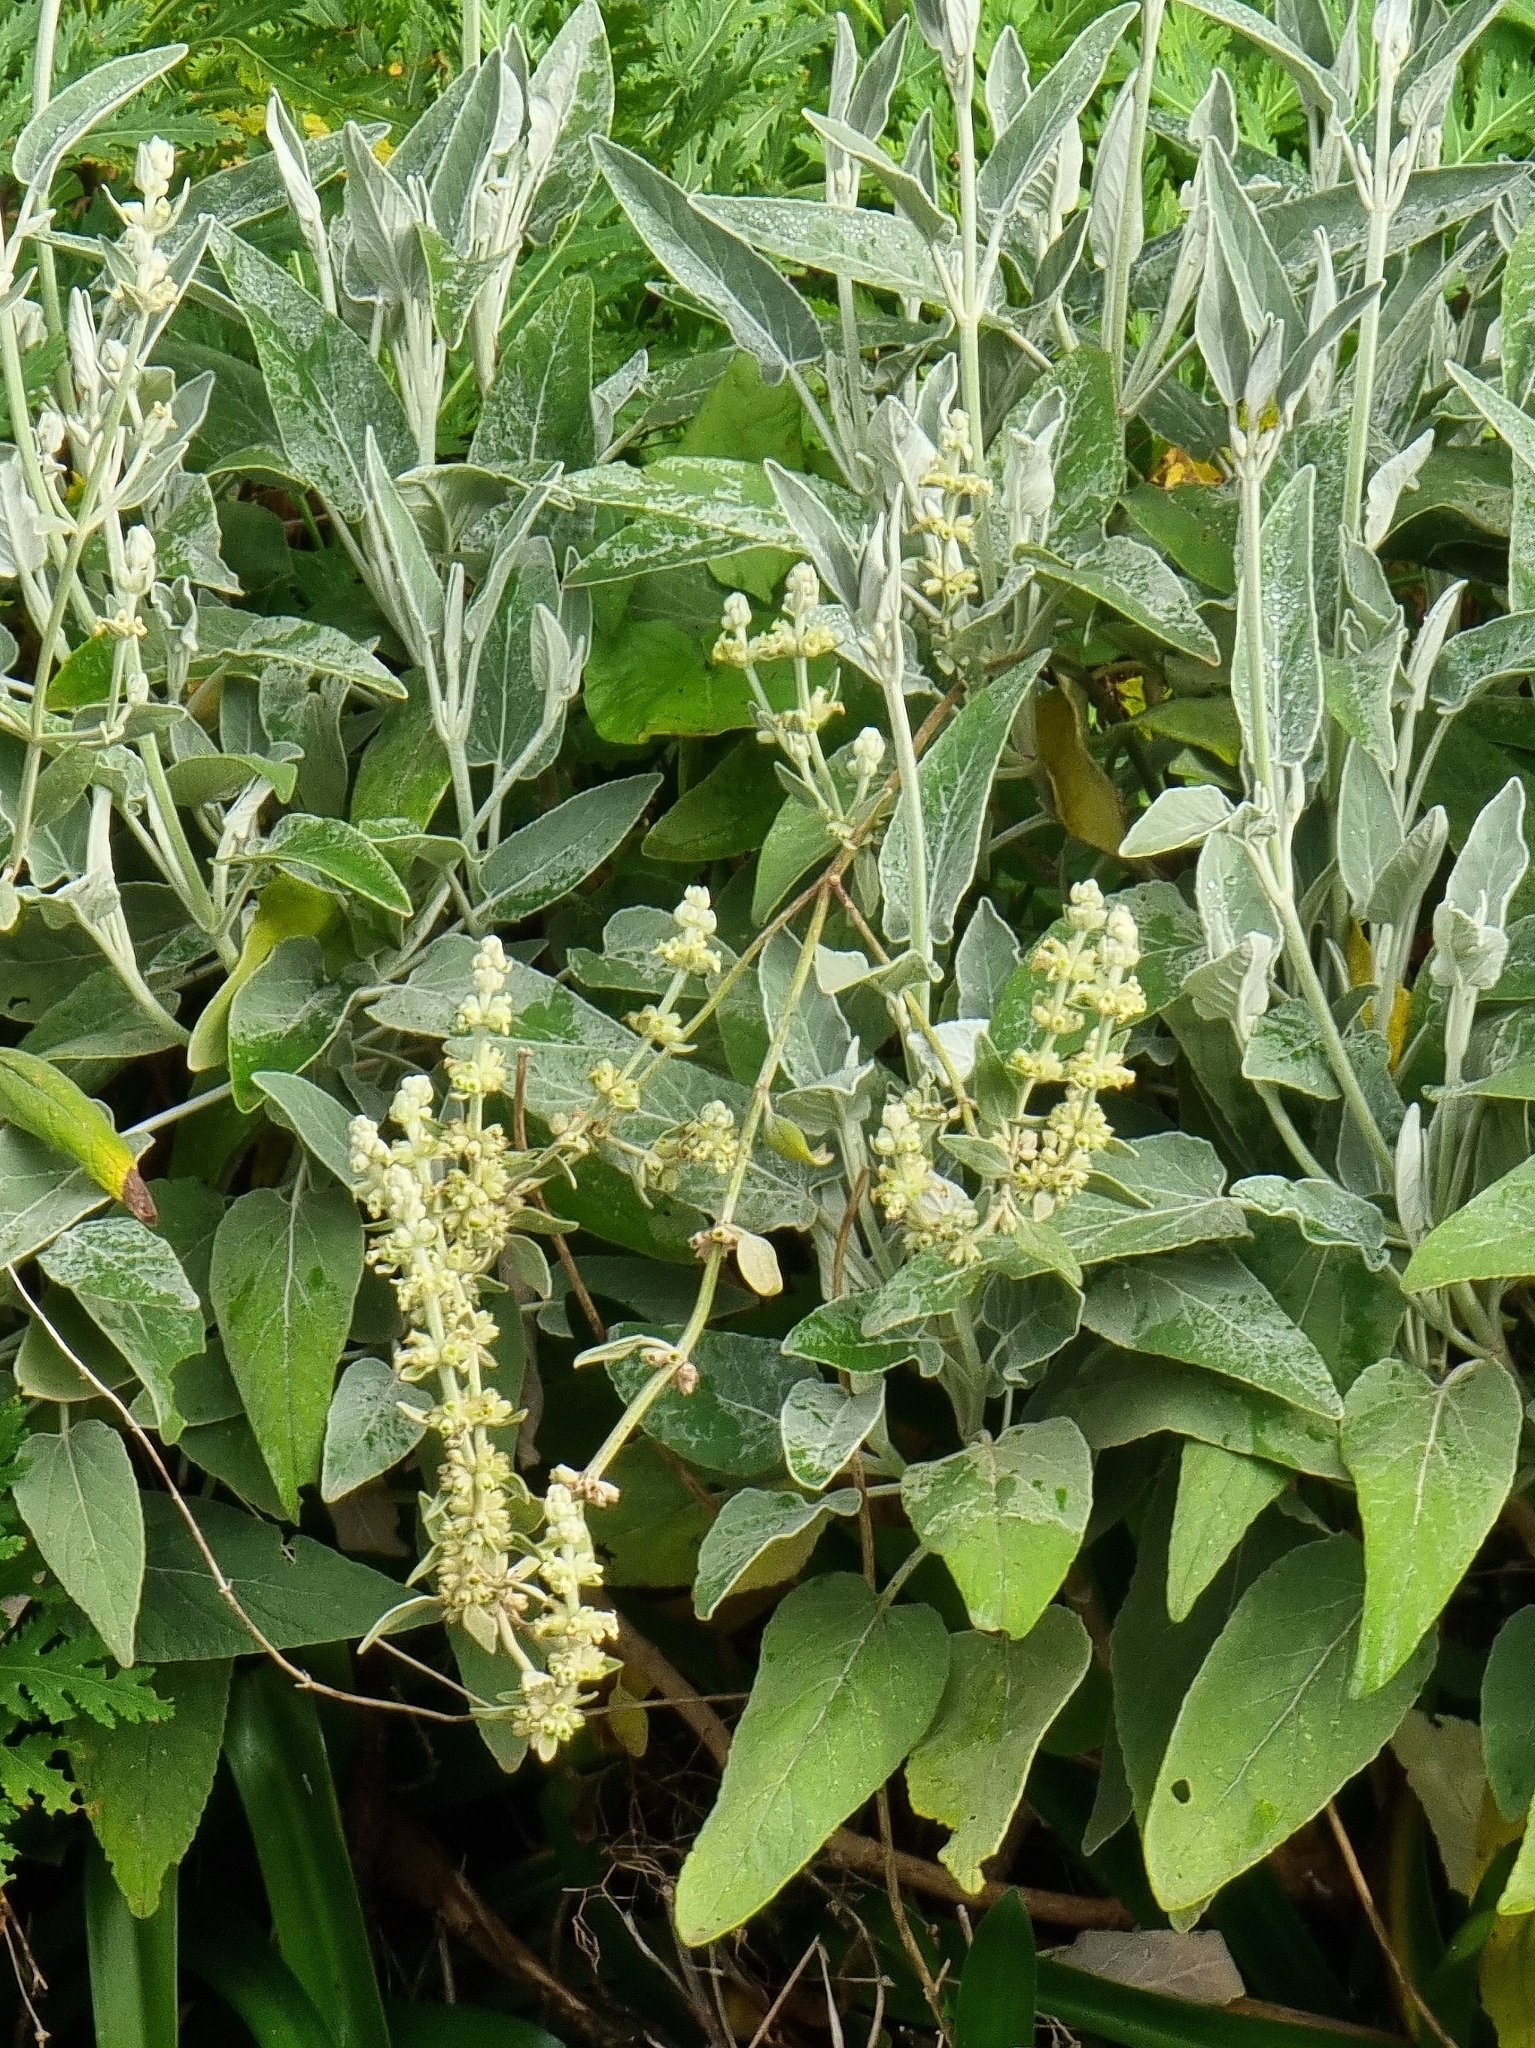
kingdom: Plantae
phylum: Tracheophyta
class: Magnoliopsida
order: Lamiales
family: Lamiaceae
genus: Sideritis
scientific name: Sideritis candicans
